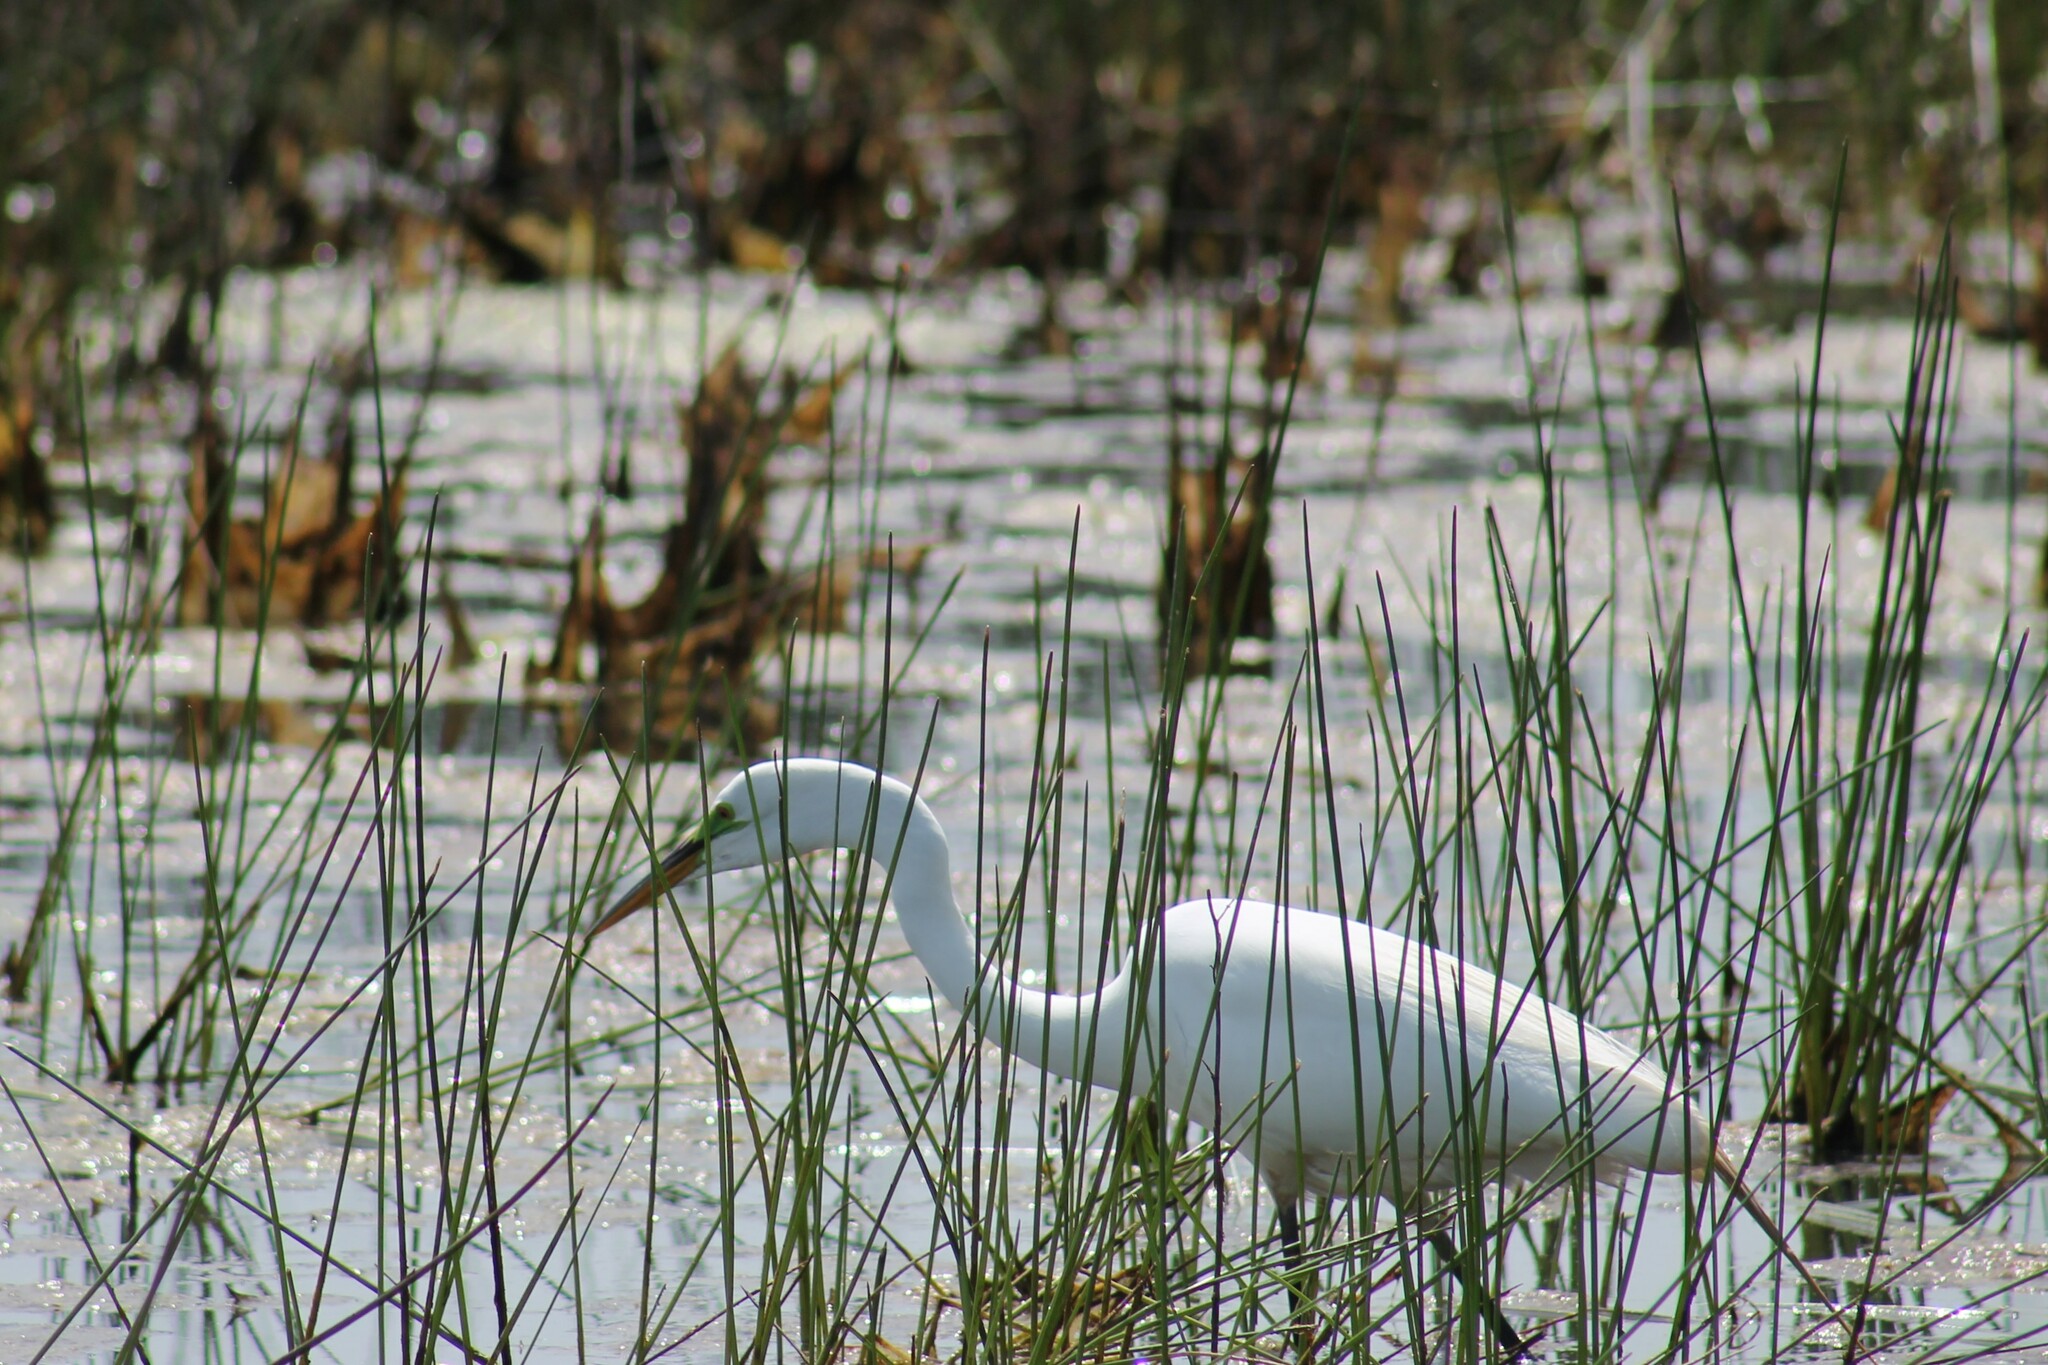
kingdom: Animalia
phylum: Chordata
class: Aves
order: Pelecaniformes
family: Ardeidae
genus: Ardea
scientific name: Ardea alba
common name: Great egret
